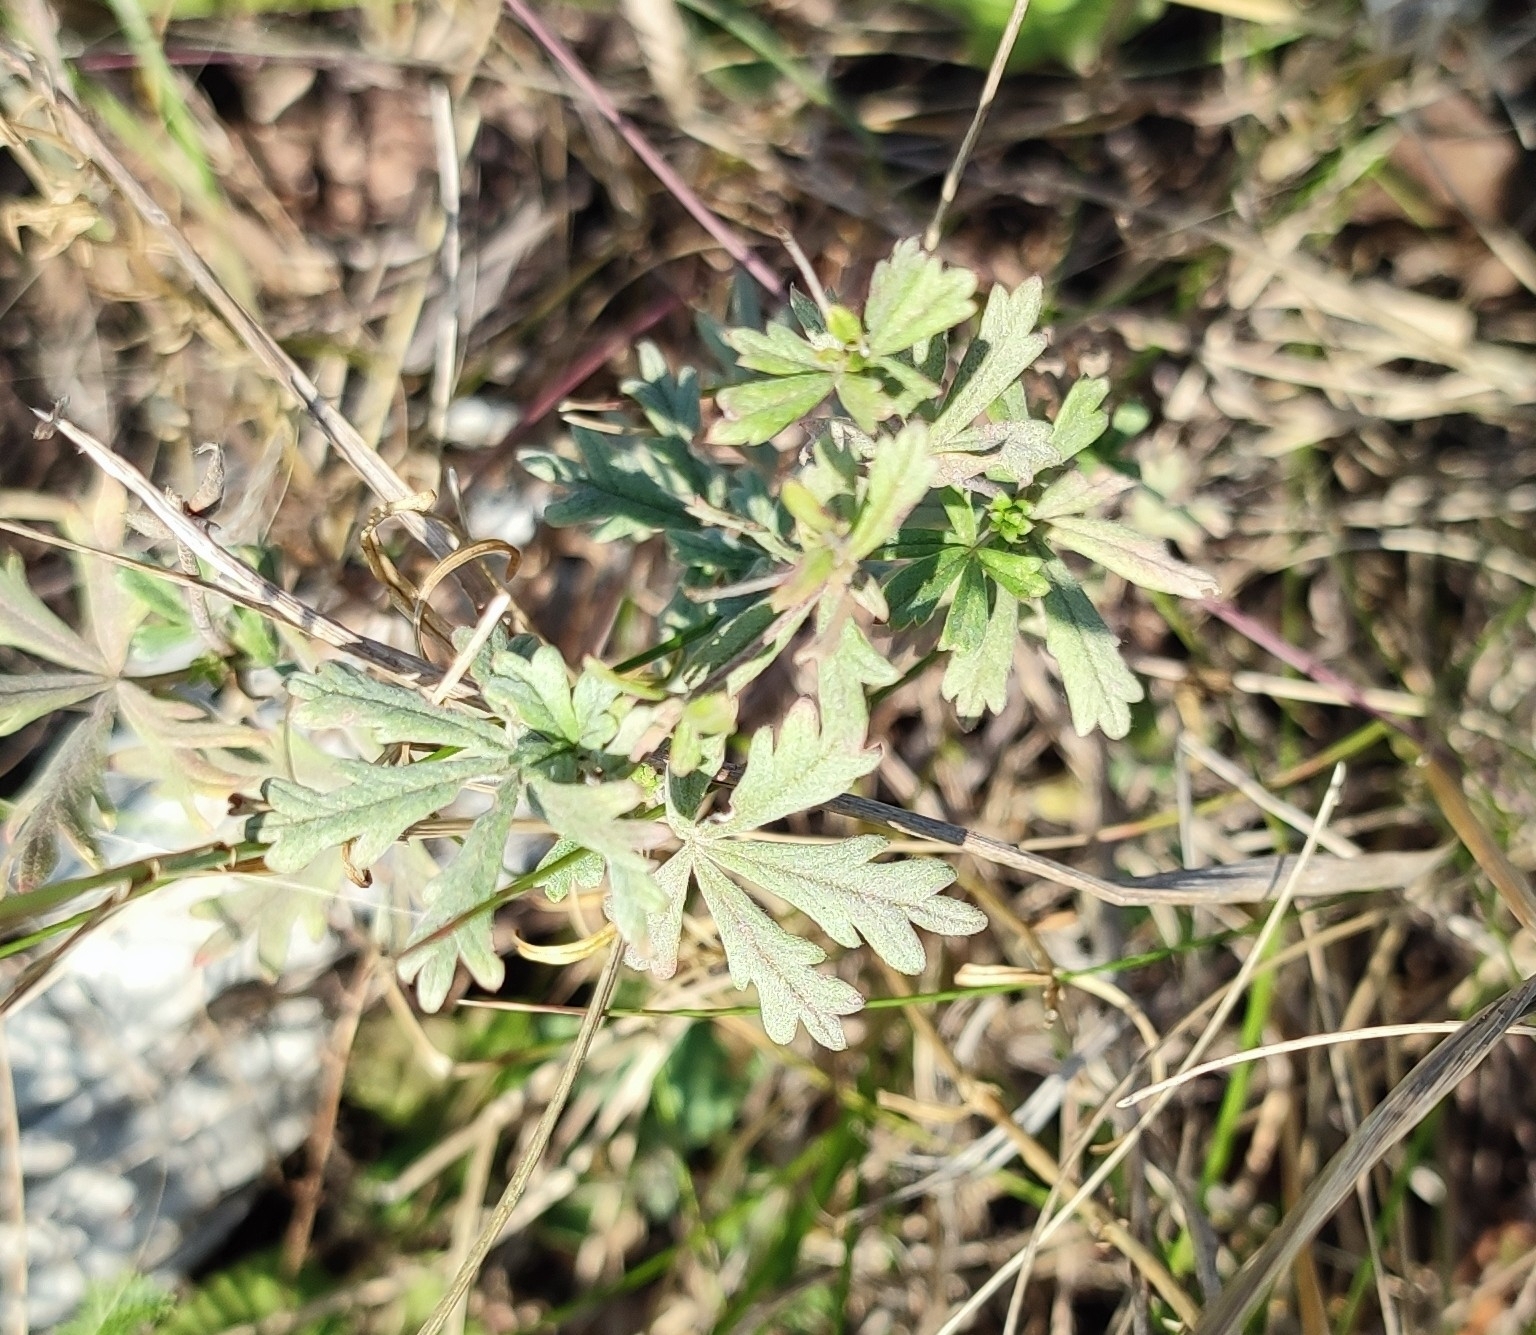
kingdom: Plantae
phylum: Tracheophyta
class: Magnoliopsida
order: Rosales
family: Rosaceae
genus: Potentilla
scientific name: Potentilla argentea
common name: Hoary cinquefoil
